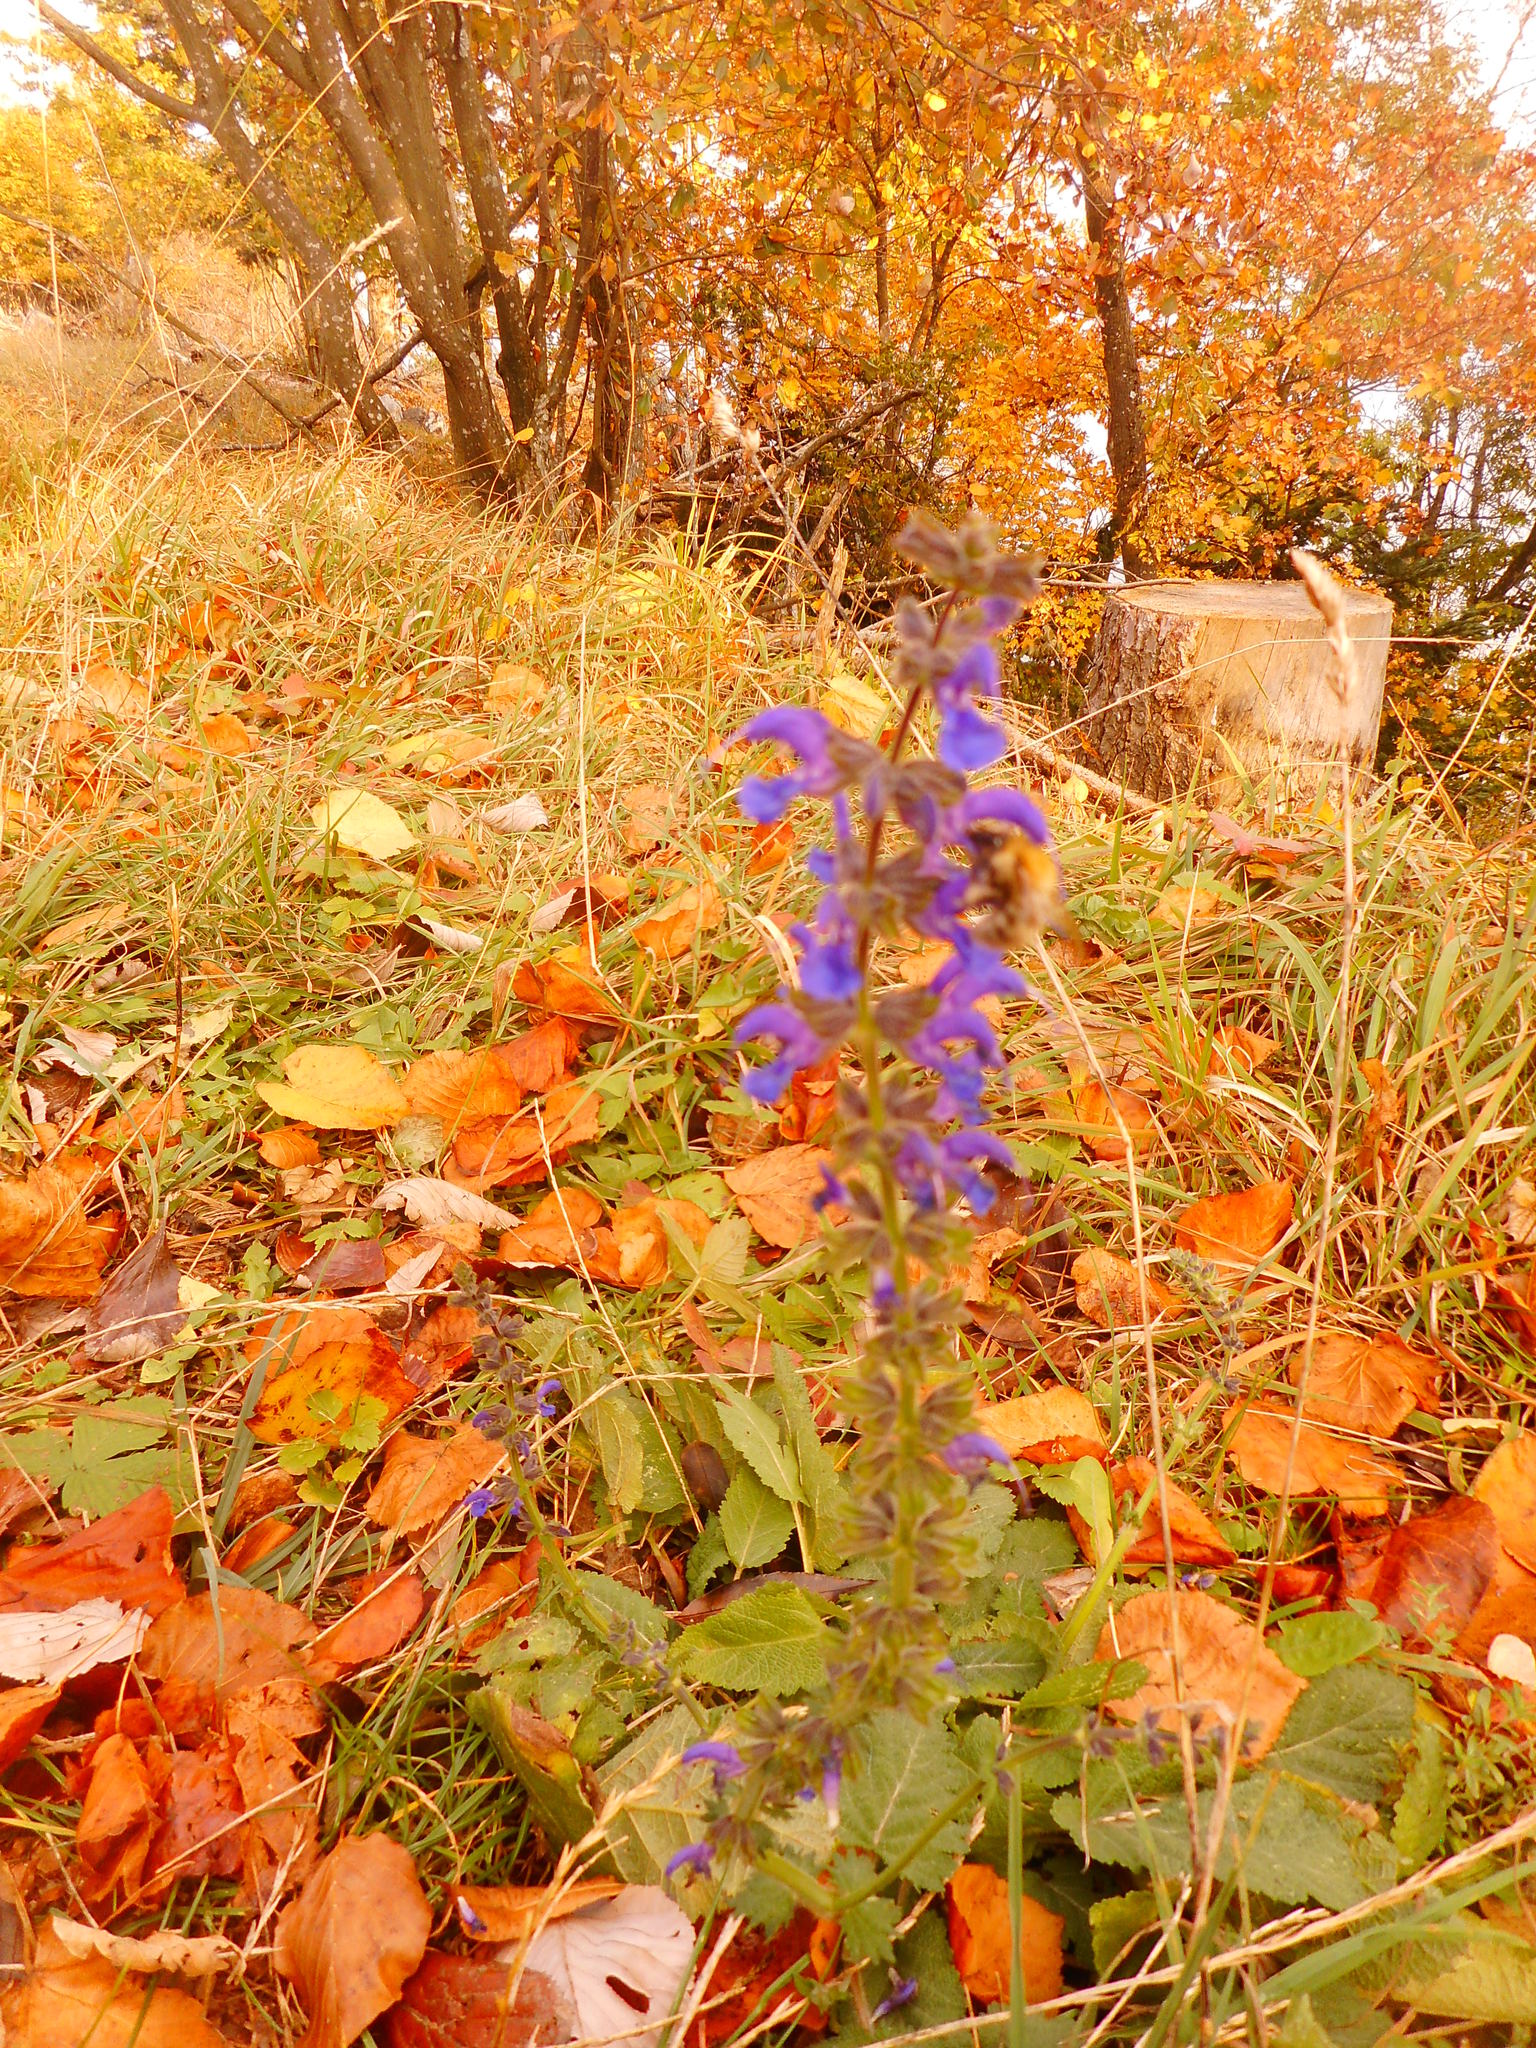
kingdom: Plantae
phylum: Tracheophyta
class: Magnoliopsida
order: Lamiales
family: Lamiaceae
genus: Salvia
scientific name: Salvia pratensis
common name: Meadow sage
